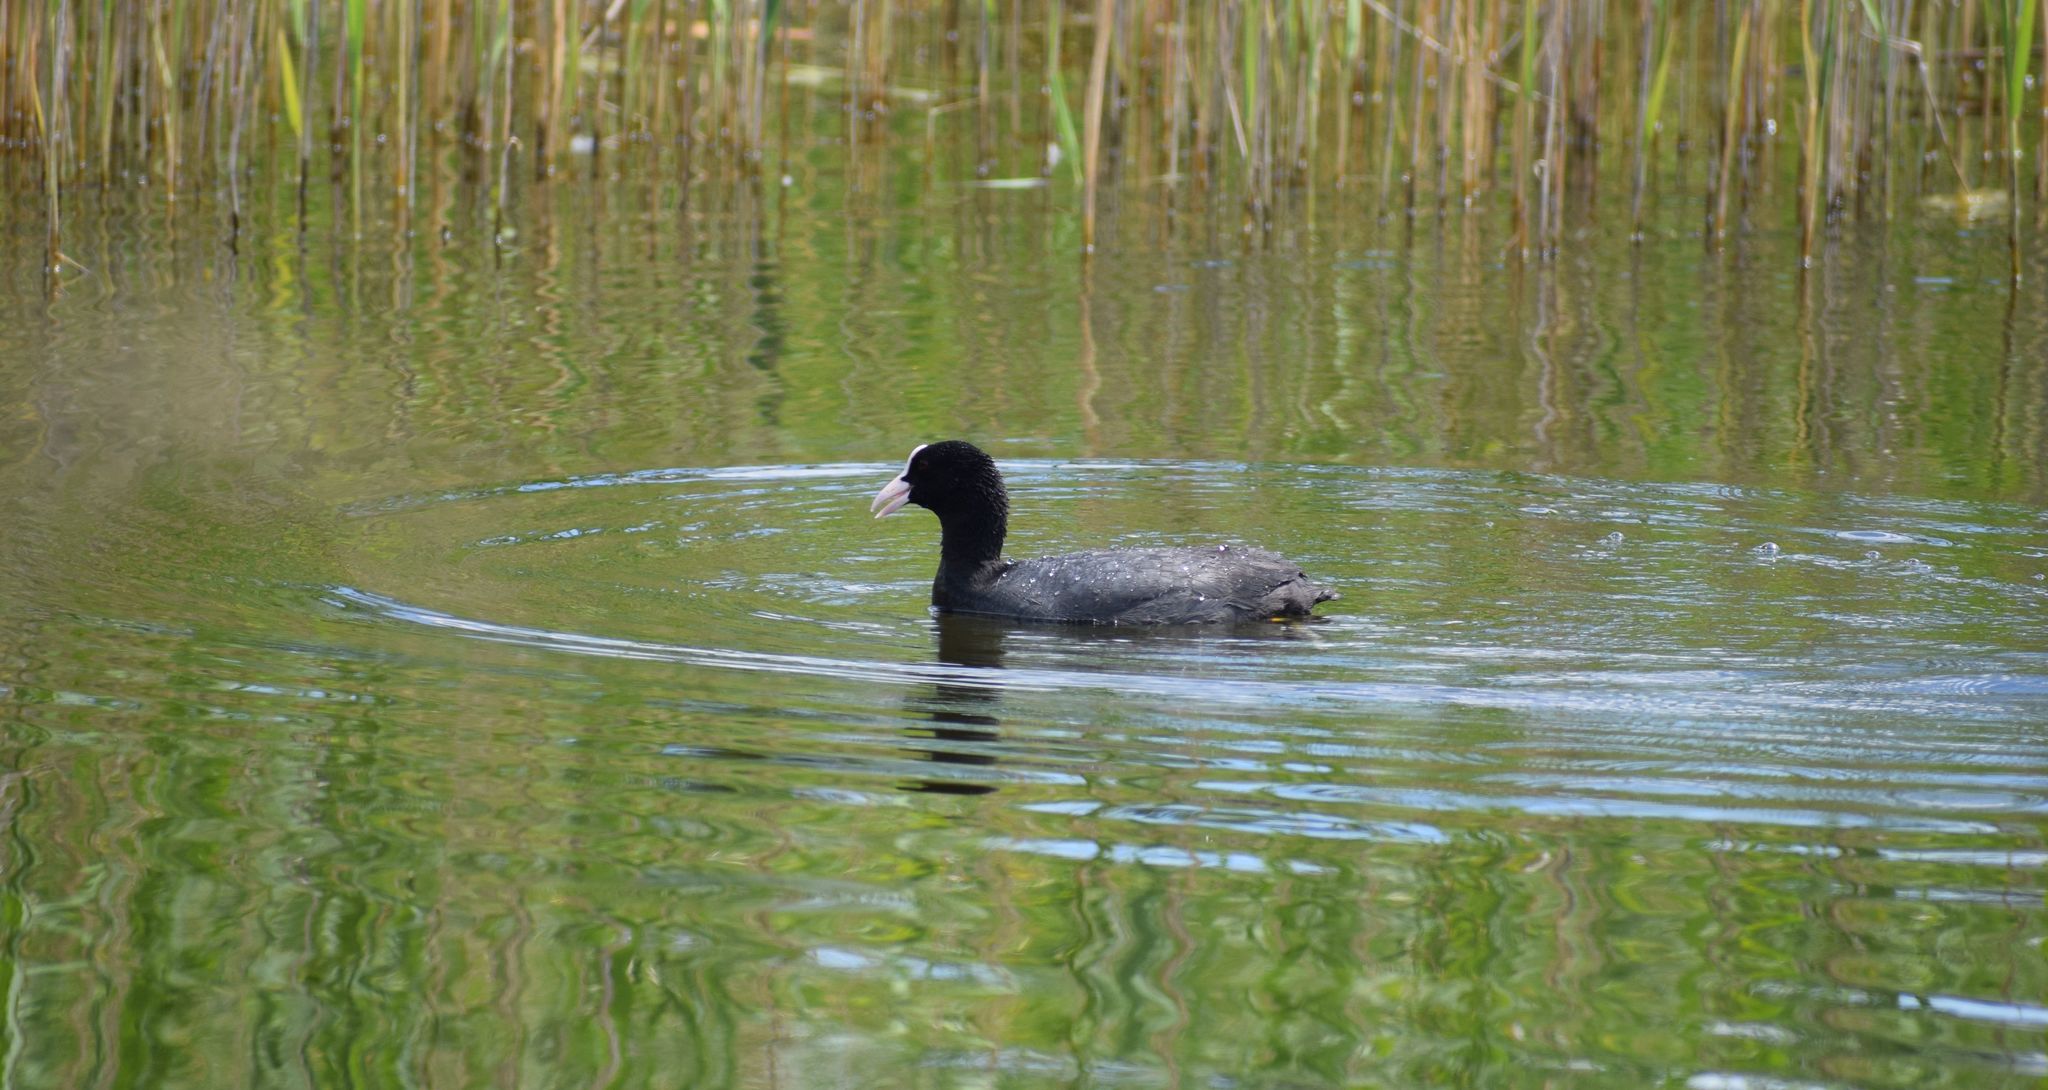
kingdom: Animalia
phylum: Chordata
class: Aves
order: Gruiformes
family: Rallidae
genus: Fulica
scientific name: Fulica atra
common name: Eurasian coot
